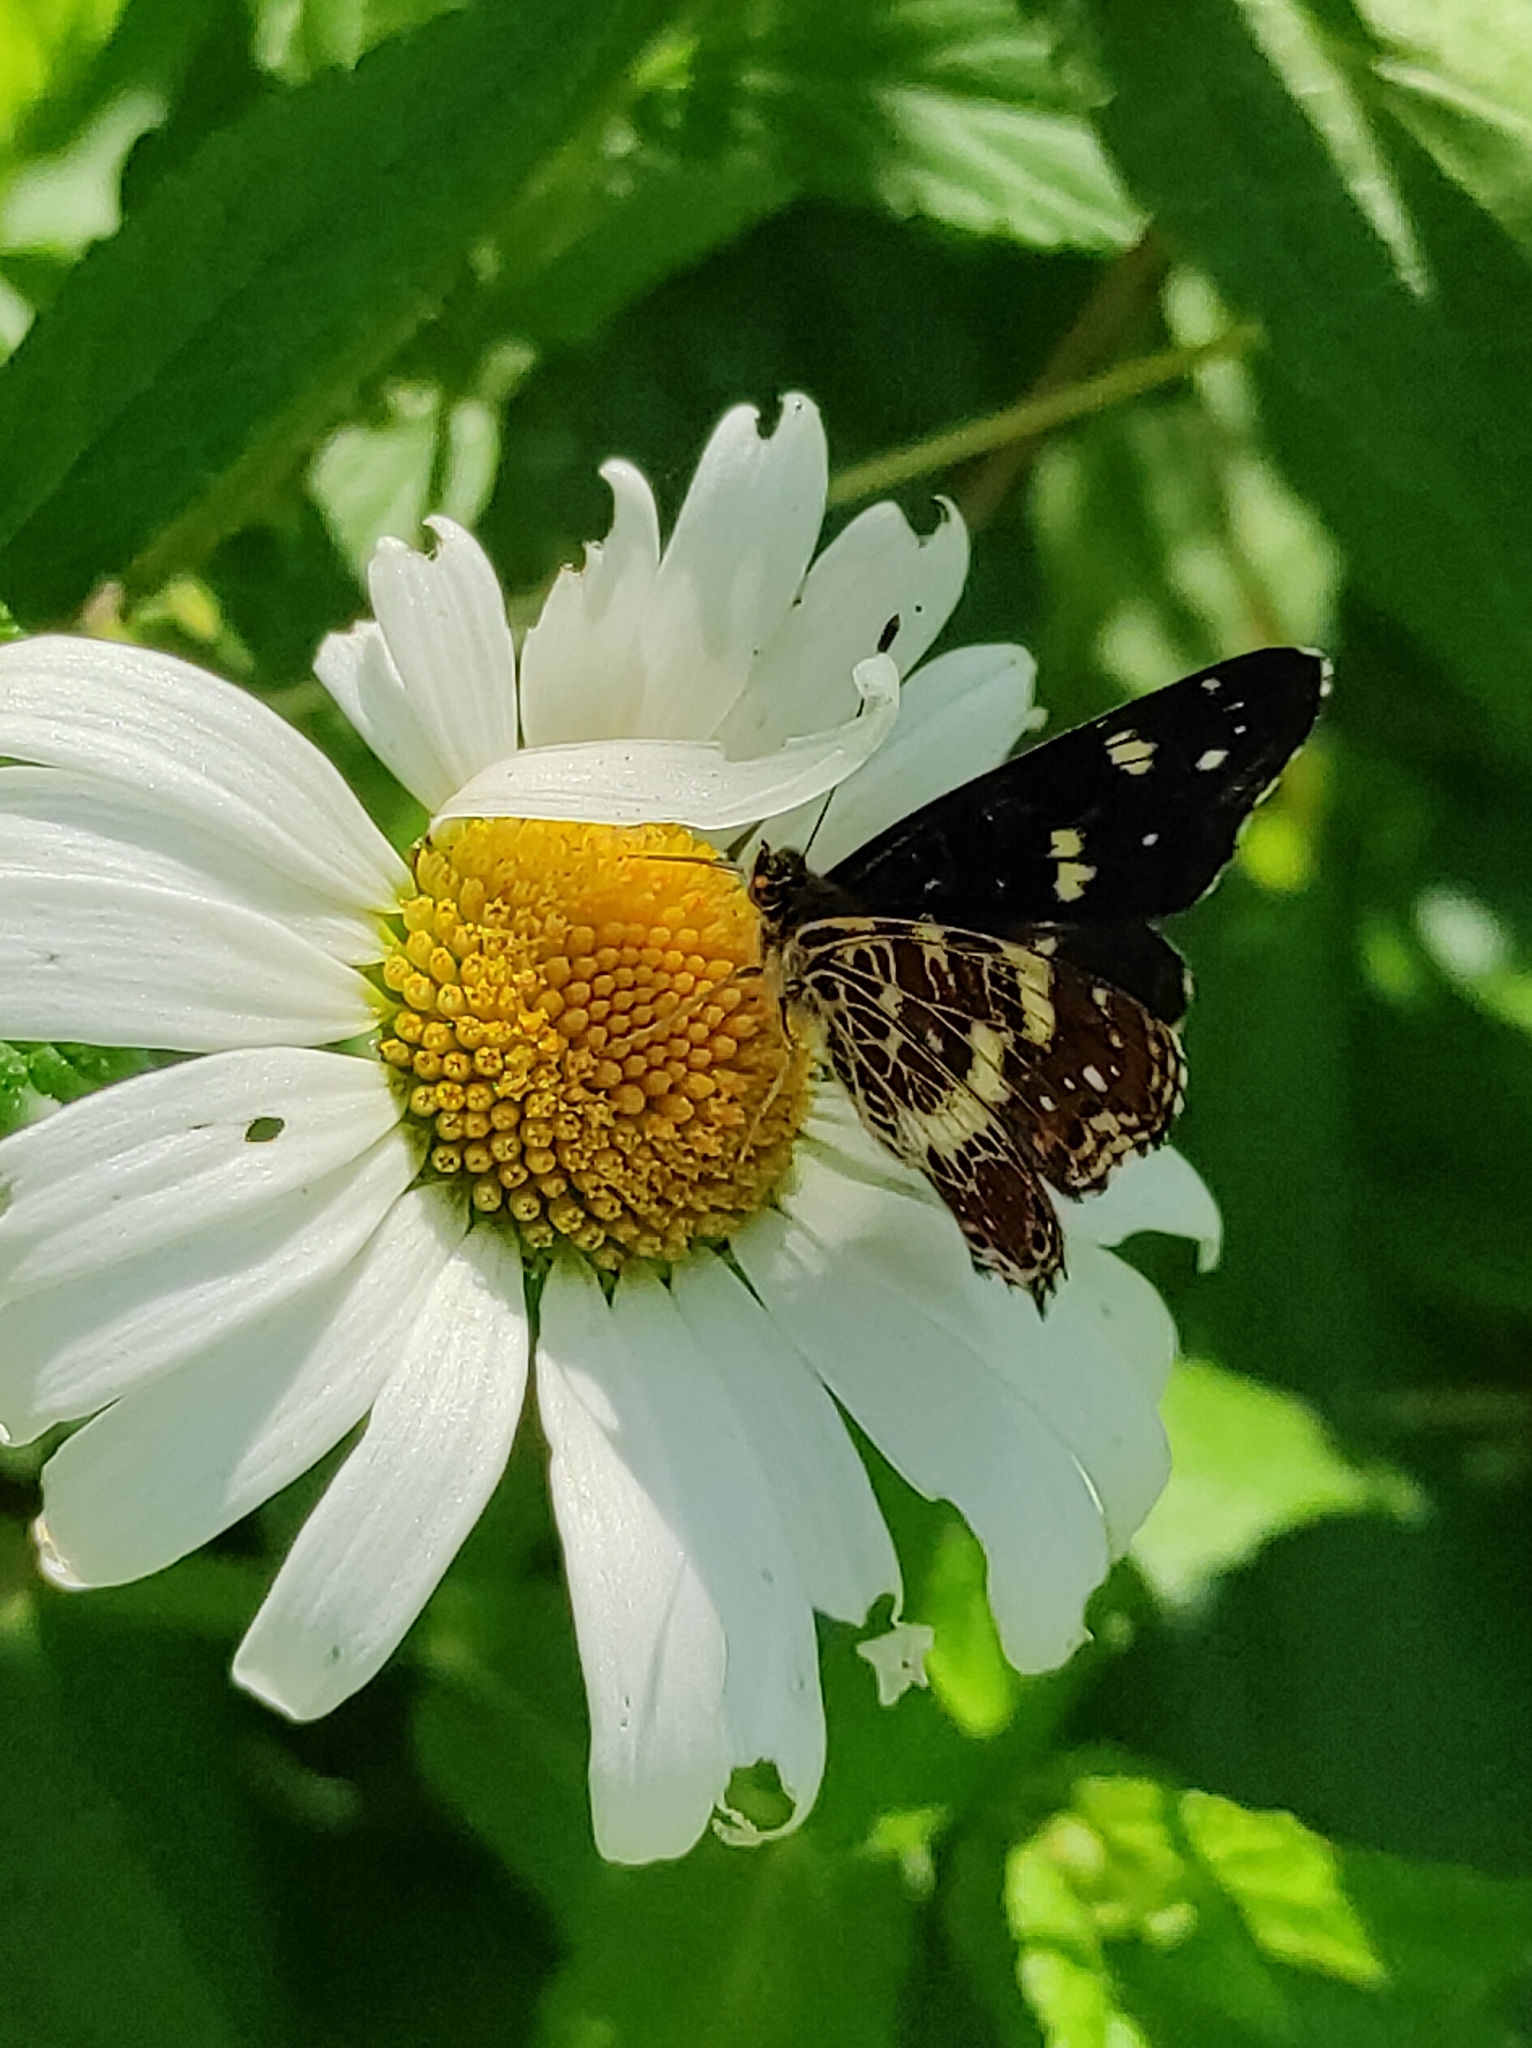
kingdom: Animalia
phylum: Arthropoda
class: Insecta
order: Lepidoptera
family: Nymphalidae
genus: Araschnia
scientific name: Araschnia levana
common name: Map butterfly
